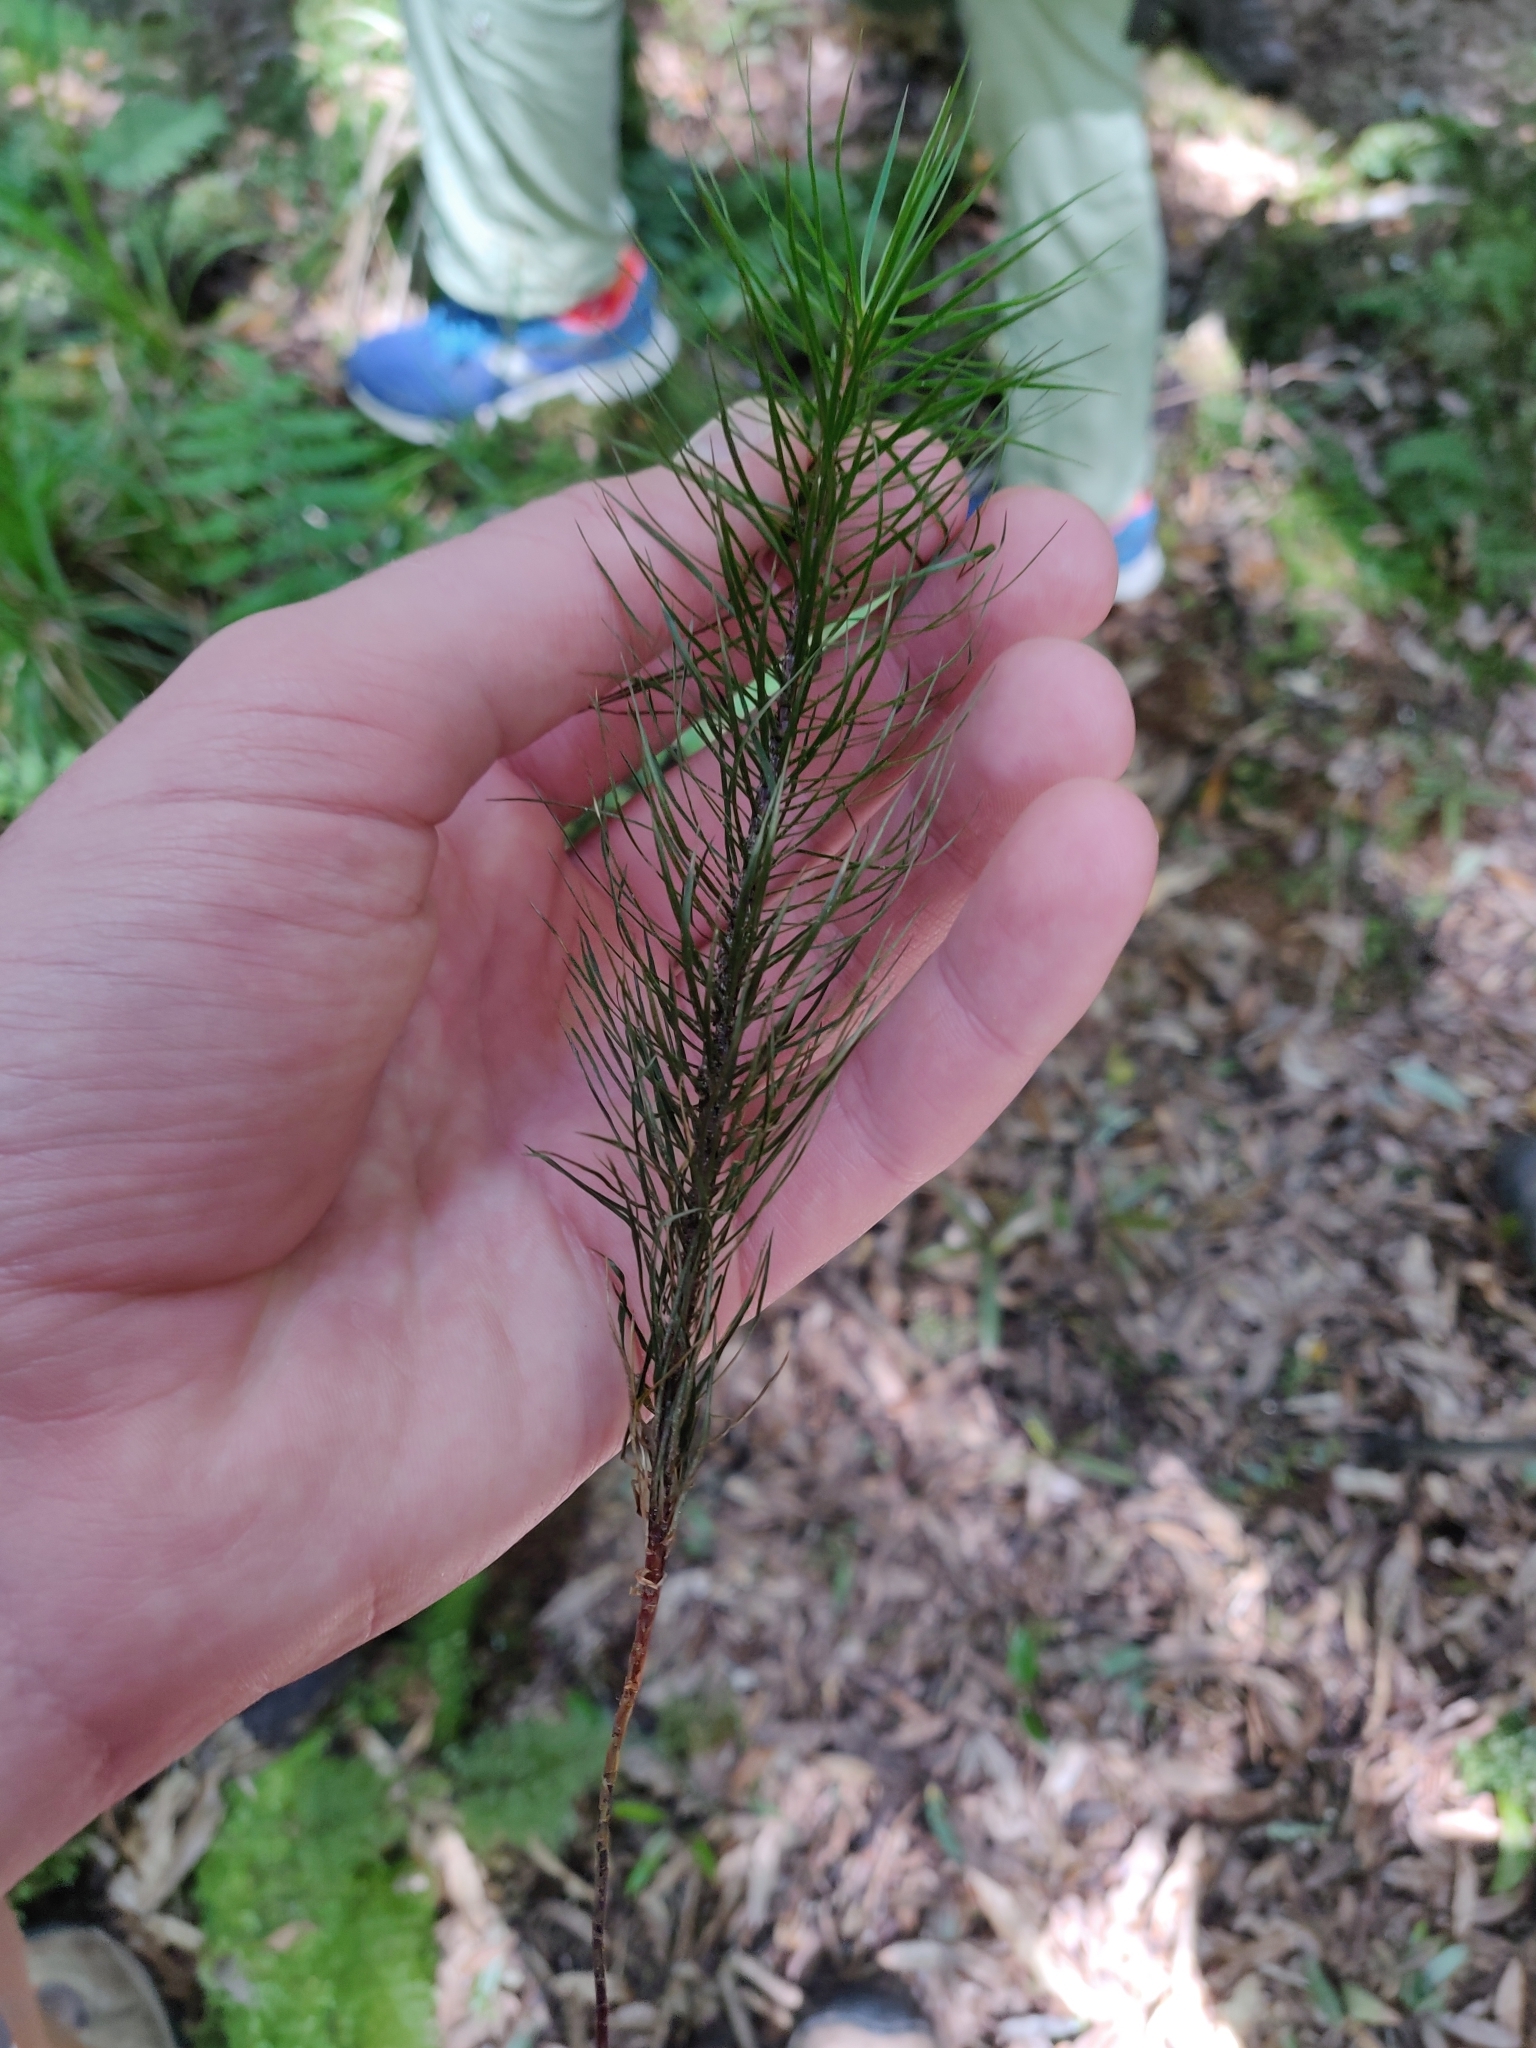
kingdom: Plantae
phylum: Bryophyta
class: Polytrichopsida
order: Polytrichales
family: Polytrichaceae
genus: Dawsonia
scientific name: Dawsonia superba
